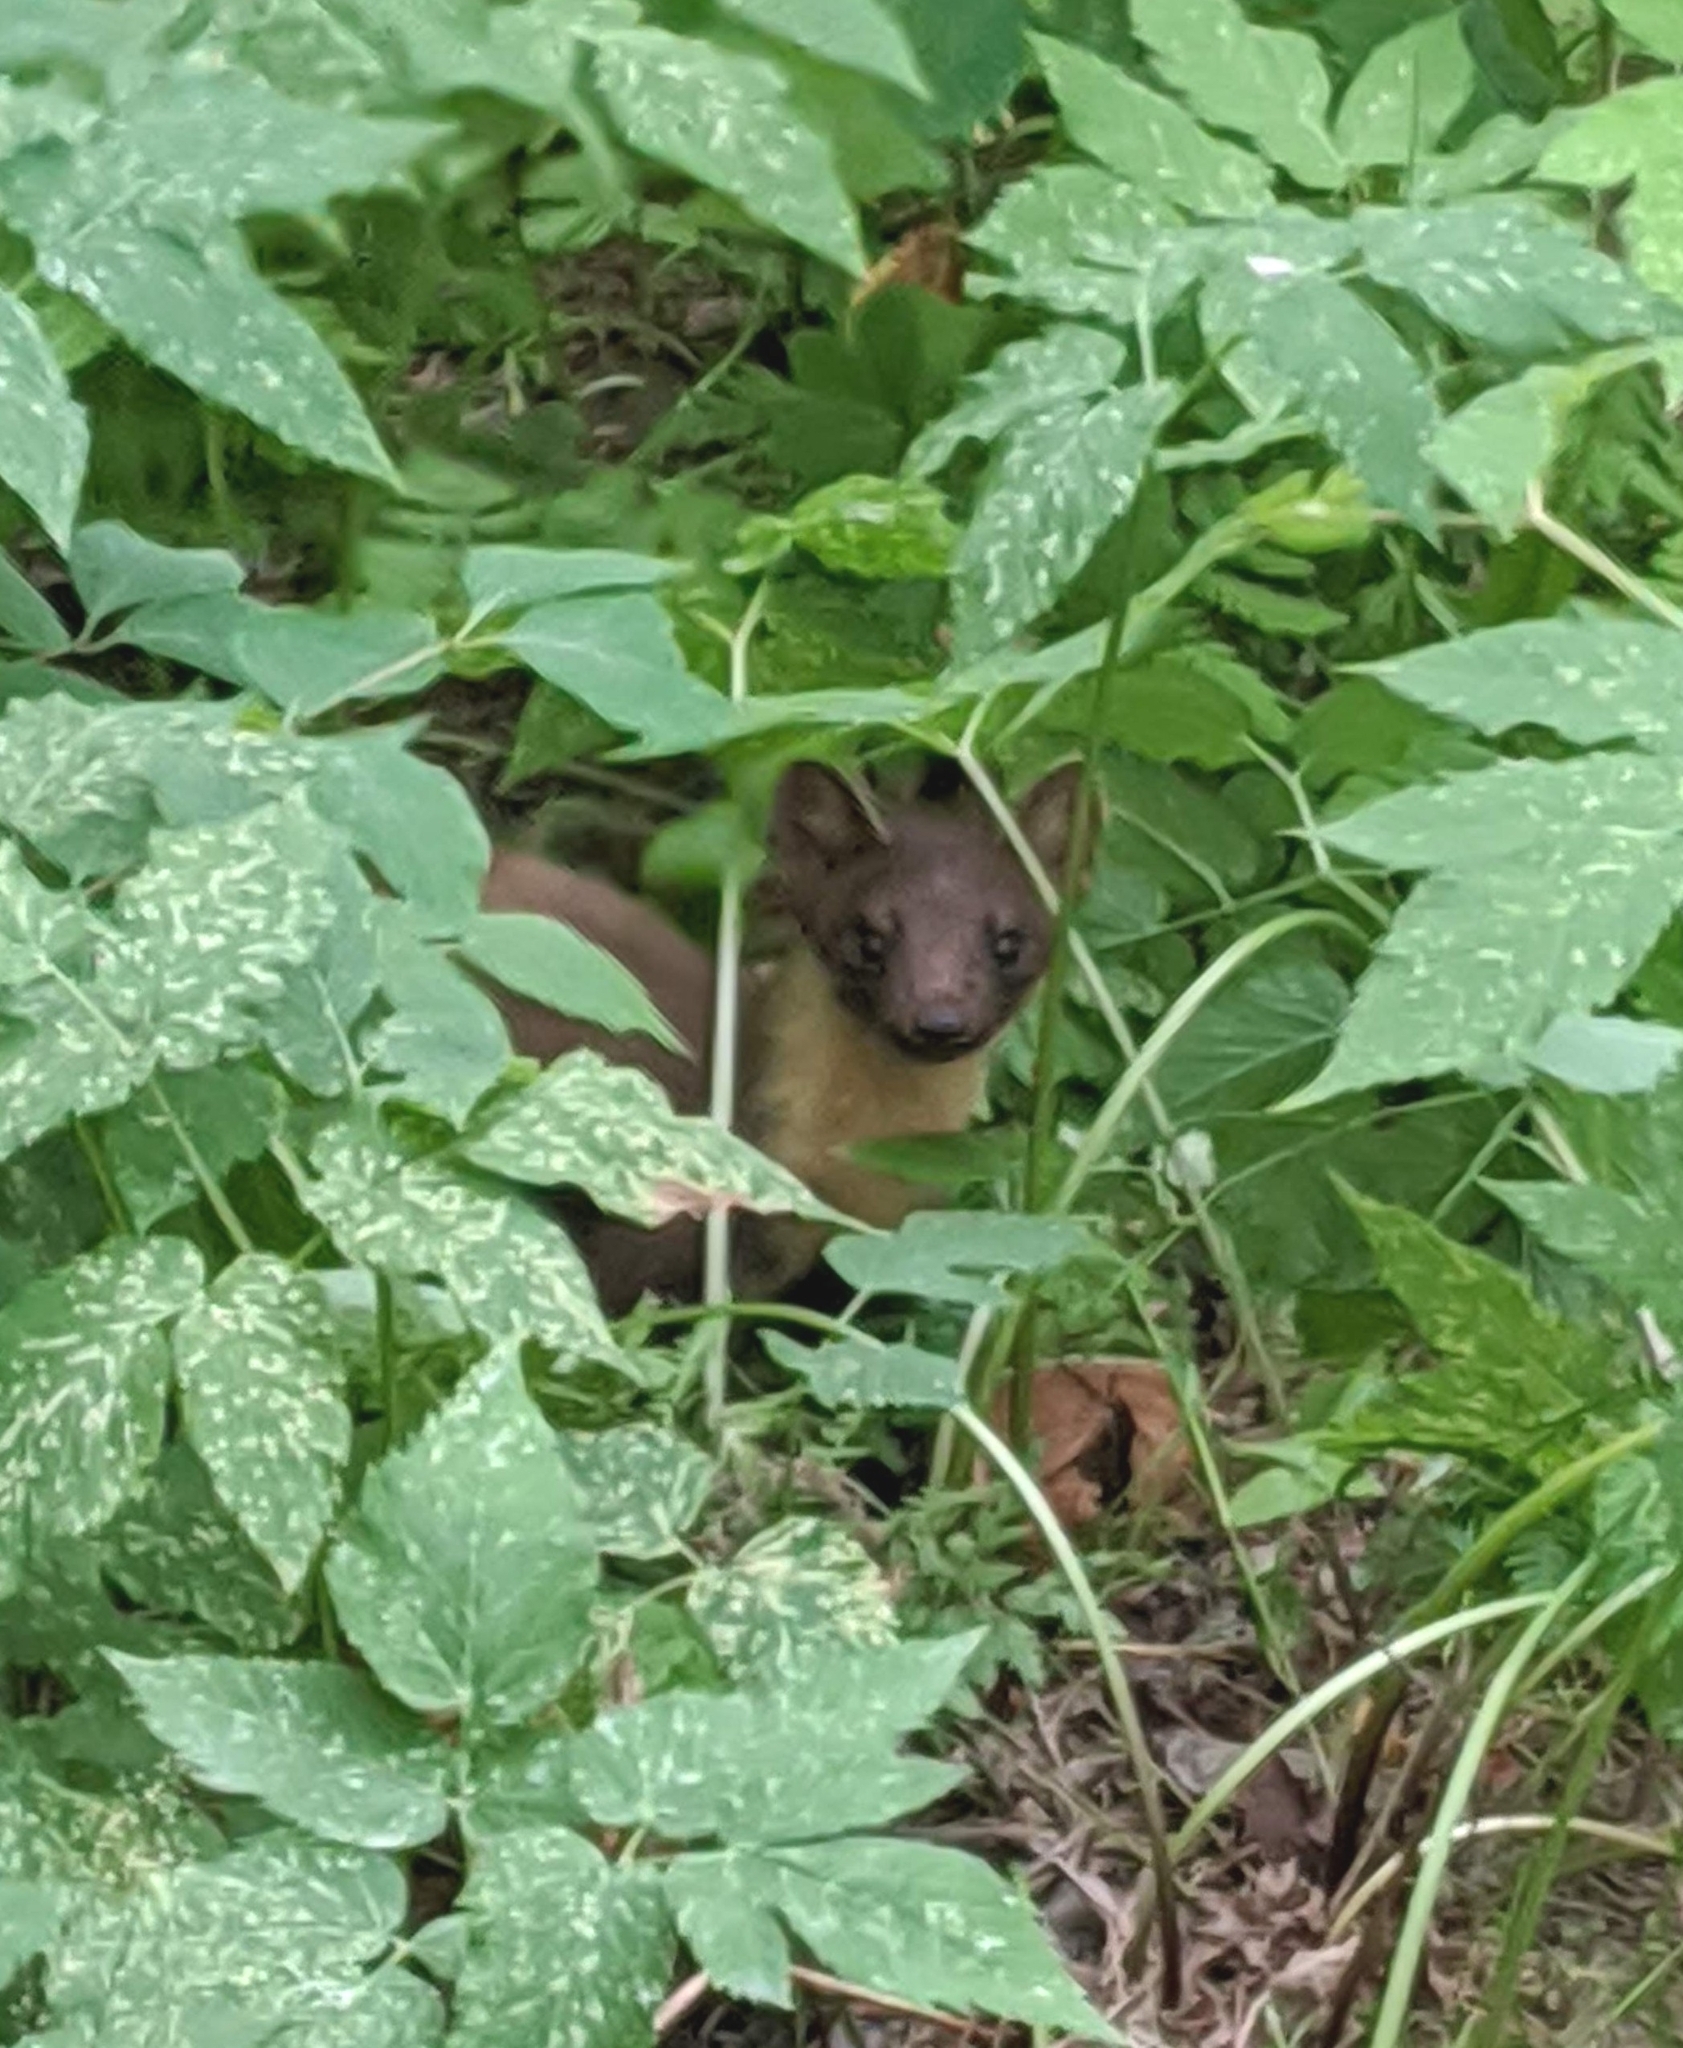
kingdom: Animalia
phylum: Chordata
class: Mammalia
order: Carnivora
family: Mustelidae
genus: Martes
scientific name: Martes martes
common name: European pine marten
